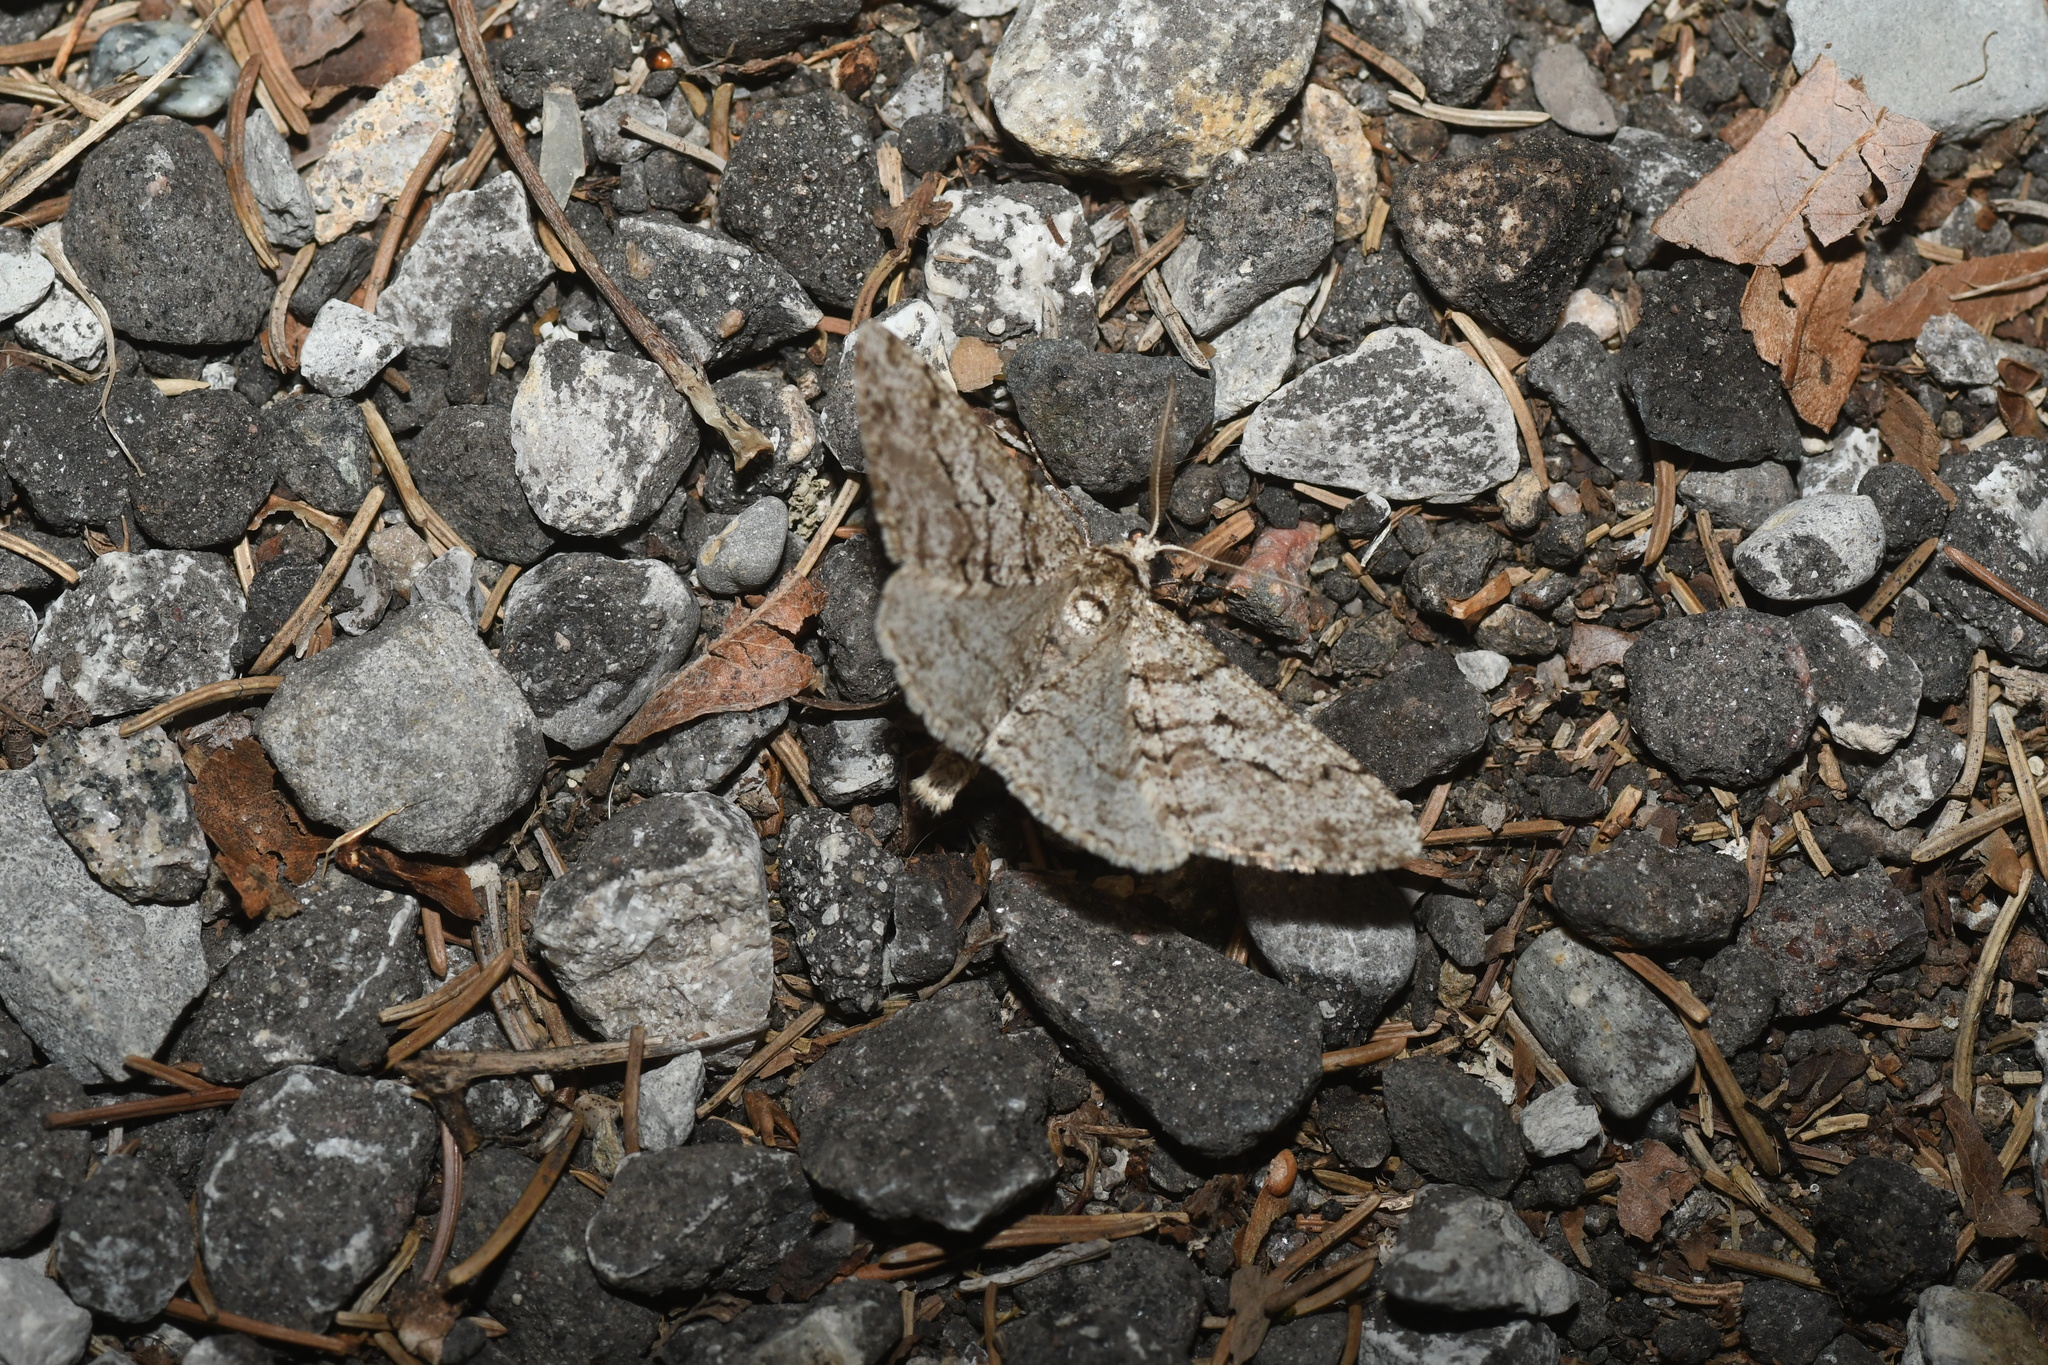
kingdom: Animalia
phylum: Arthropoda
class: Insecta
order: Lepidoptera
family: Geometridae
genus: Phigalia
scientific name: Phigalia titea
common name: Spiny looper
